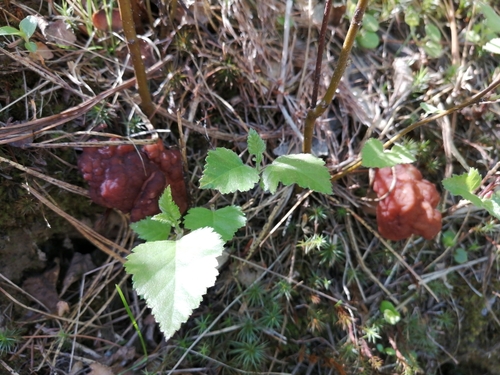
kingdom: Fungi
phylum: Ascomycota
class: Pezizomycetes
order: Pezizales
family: Discinaceae
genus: Gyromitra
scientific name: Gyromitra esculenta
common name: False morel
